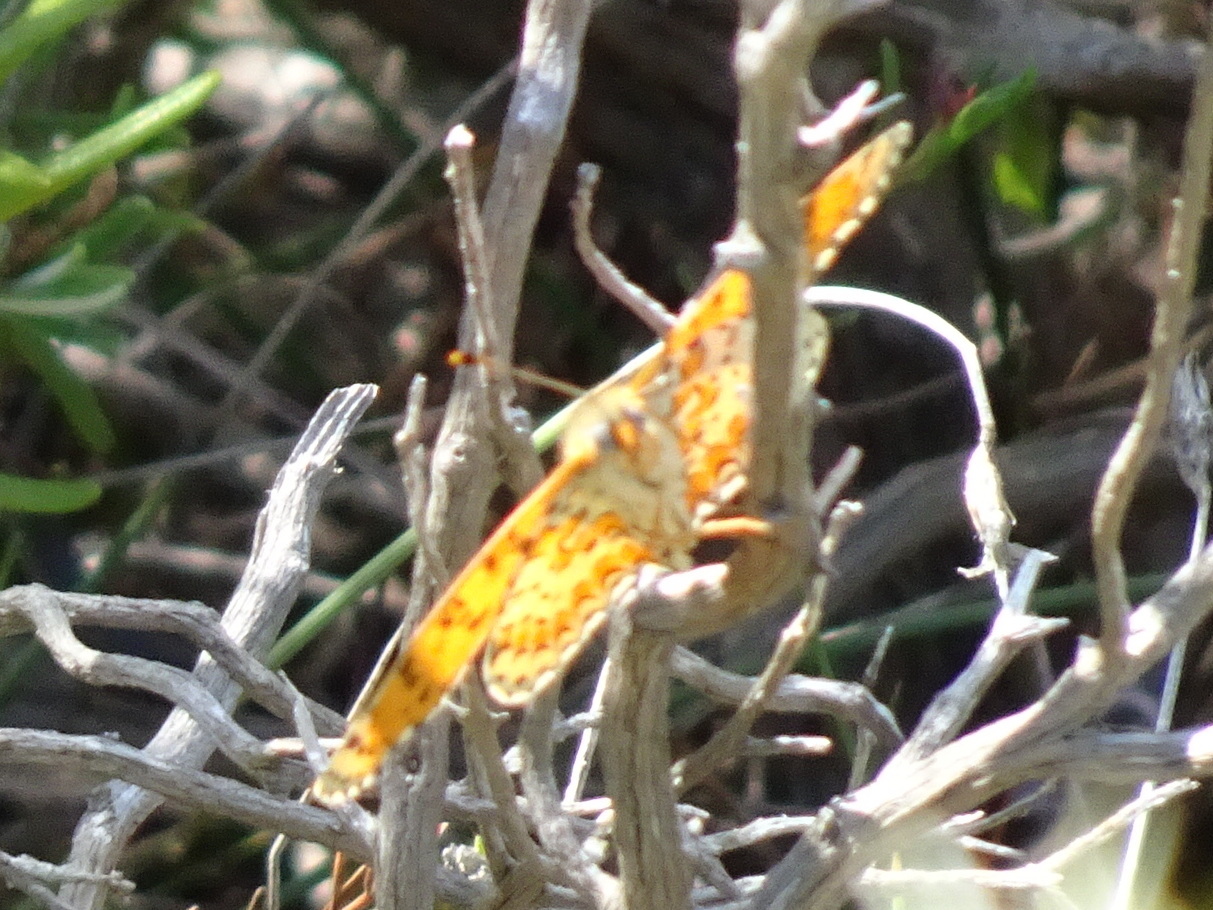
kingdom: Animalia
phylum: Arthropoda
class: Insecta
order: Lepidoptera
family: Nymphalidae
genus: Melitaea
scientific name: Melitaea didyma
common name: Spotted fritillary
